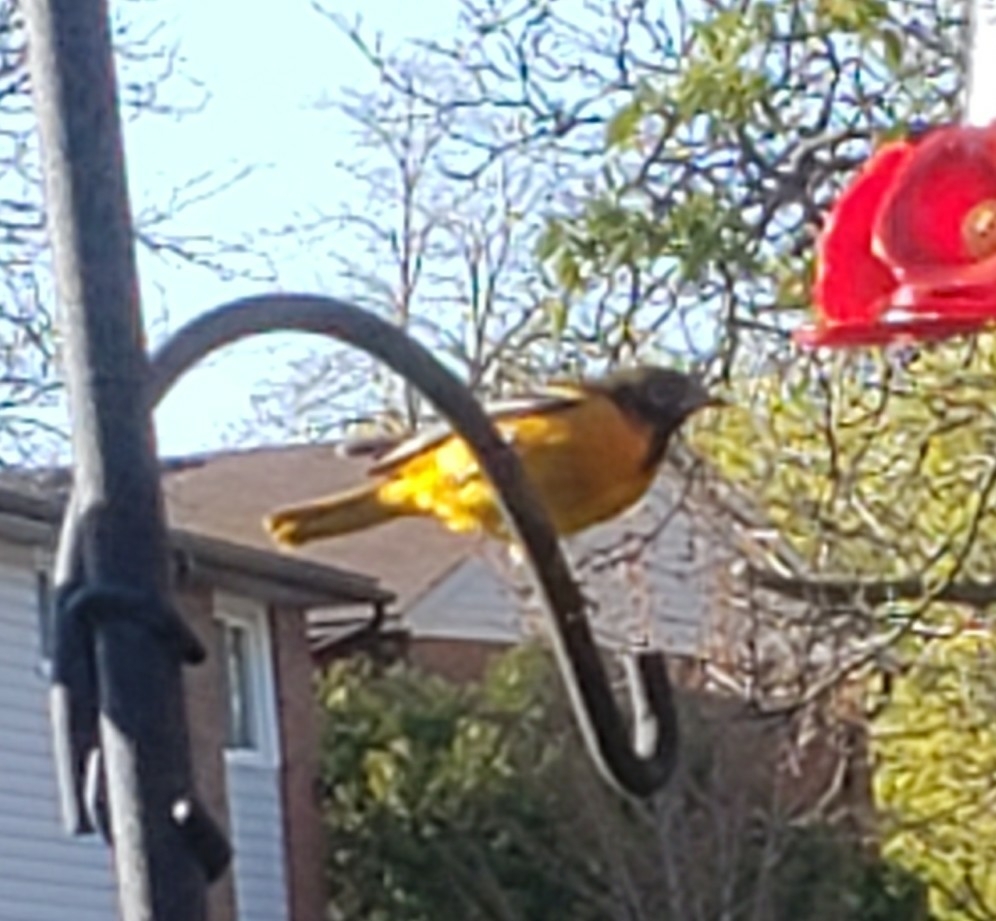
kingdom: Animalia
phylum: Chordata
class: Aves
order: Passeriformes
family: Icteridae
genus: Icterus
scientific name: Icterus galbula
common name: Baltimore oriole
